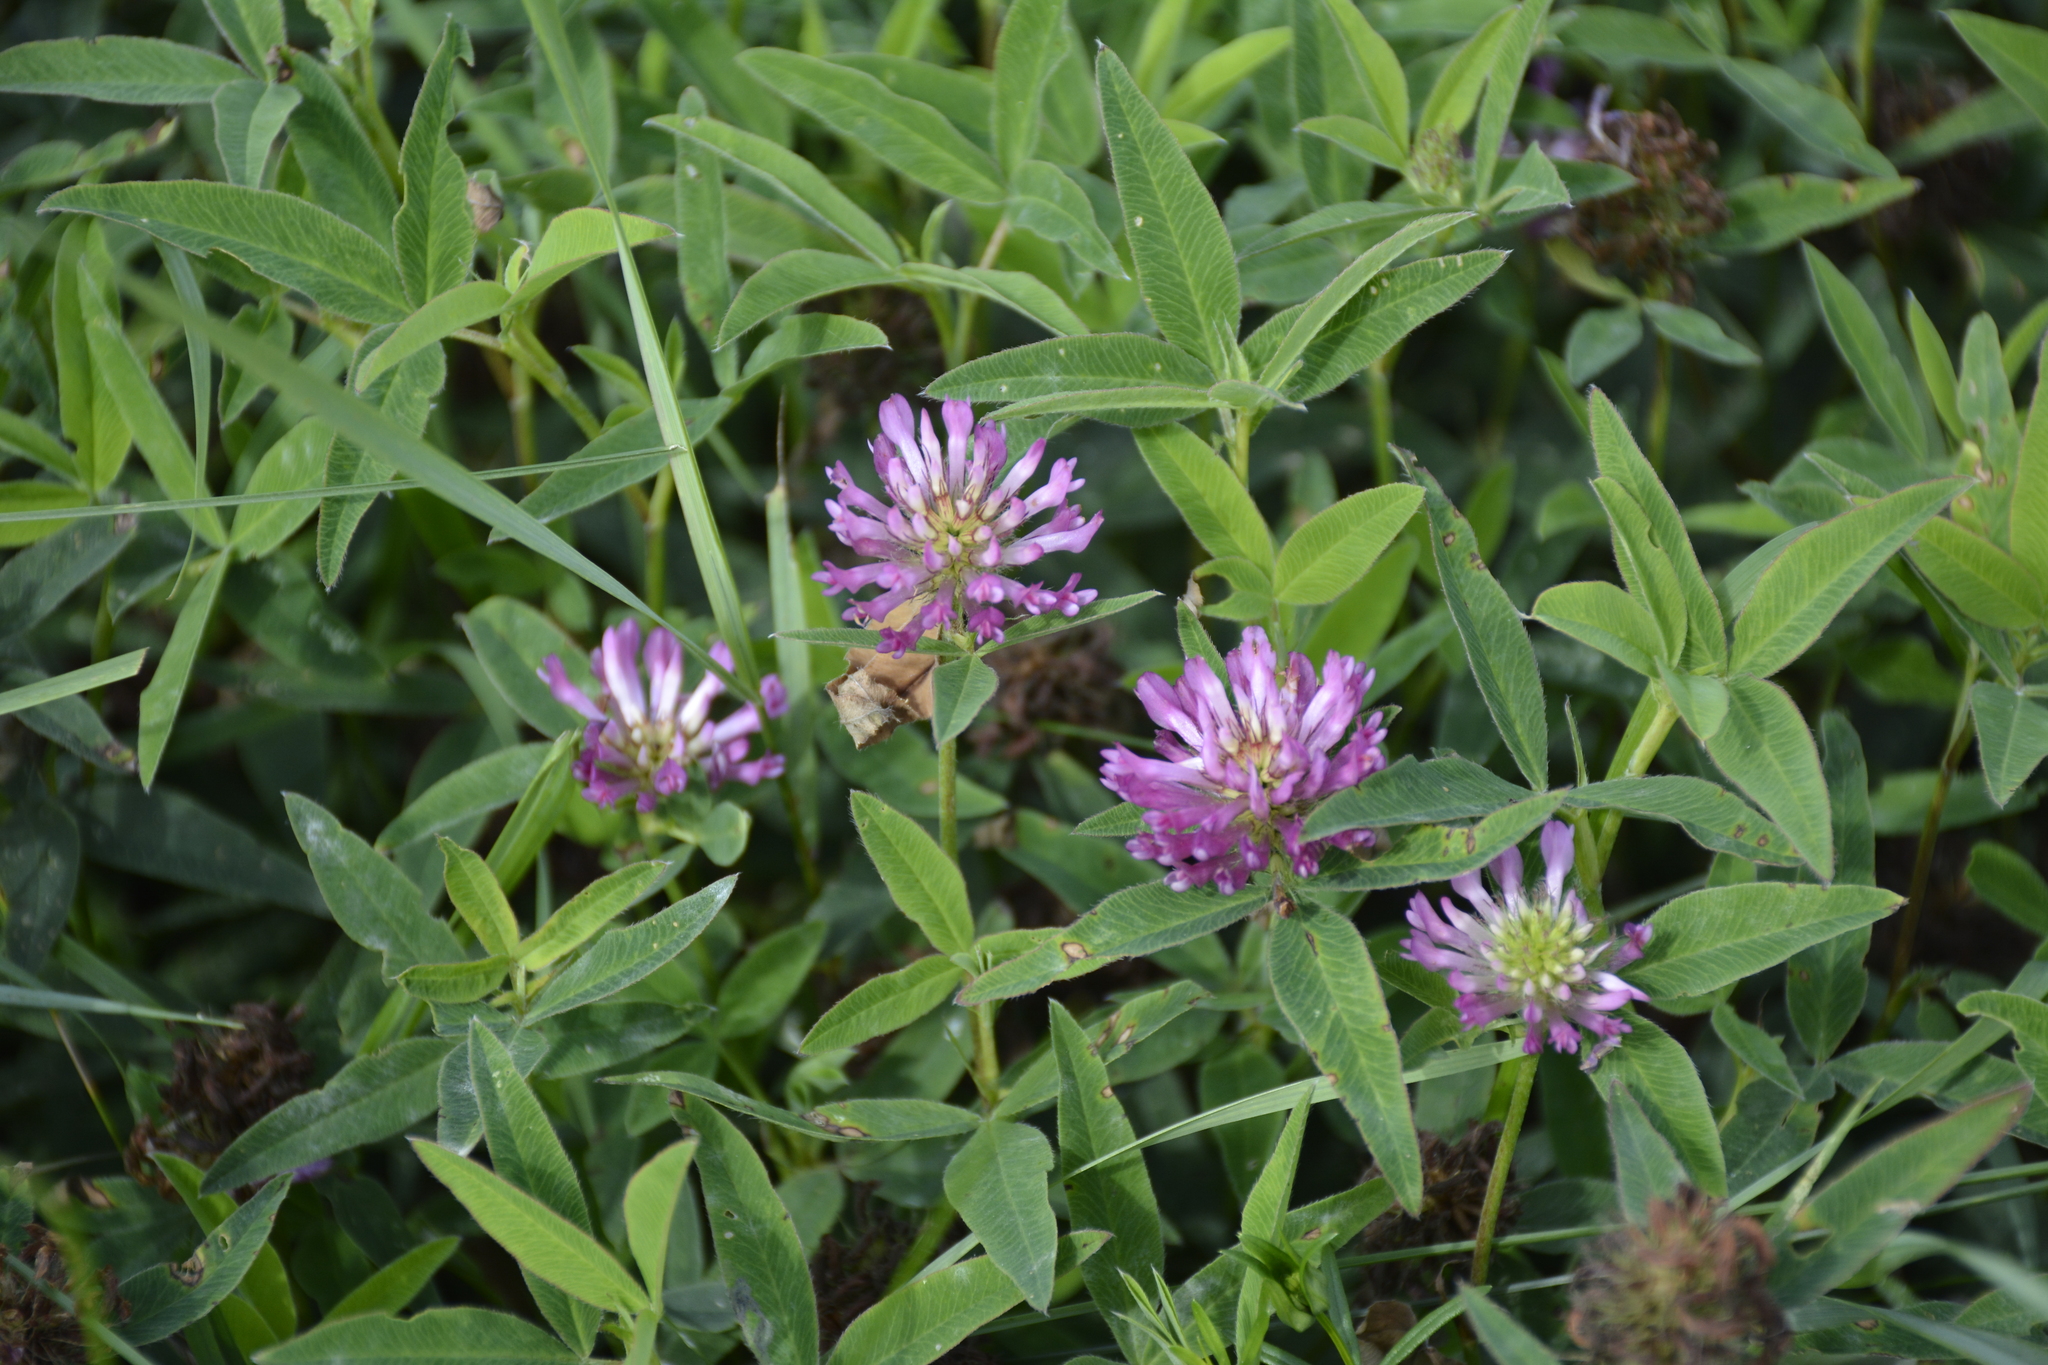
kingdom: Plantae
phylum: Tracheophyta
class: Magnoliopsida
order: Fabales
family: Fabaceae
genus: Trifolium
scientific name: Trifolium medium
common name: Zigzag clover
